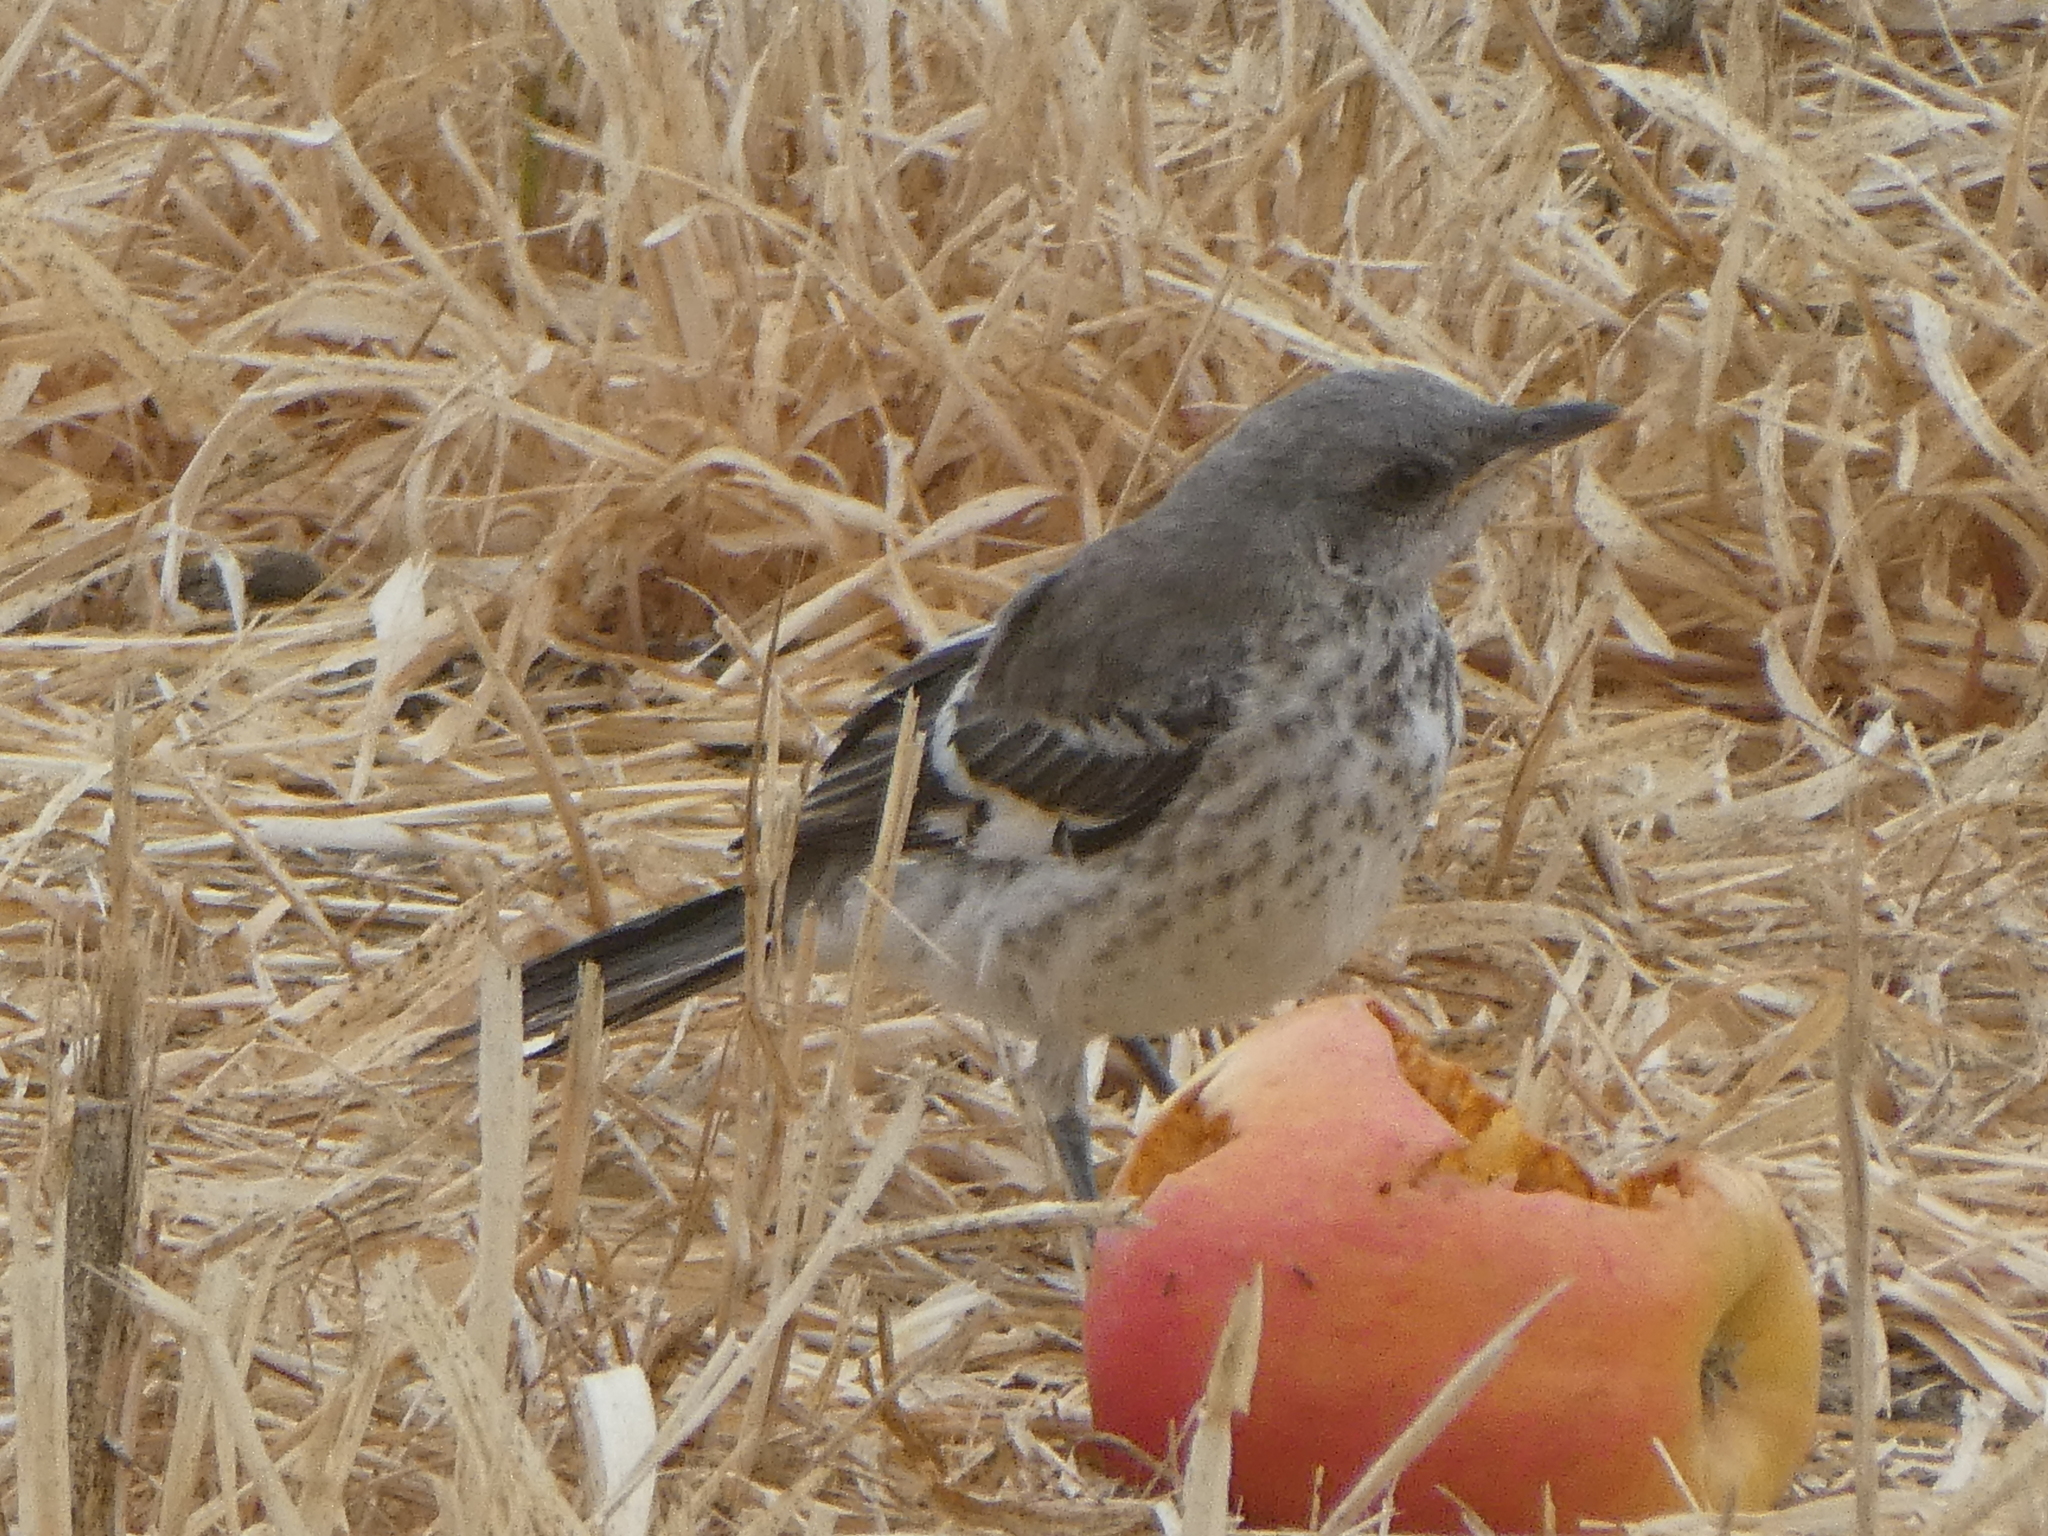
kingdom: Animalia
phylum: Chordata
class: Aves
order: Passeriformes
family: Mimidae
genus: Mimus
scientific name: Mimus polyglottos
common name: Northern mockingbird
